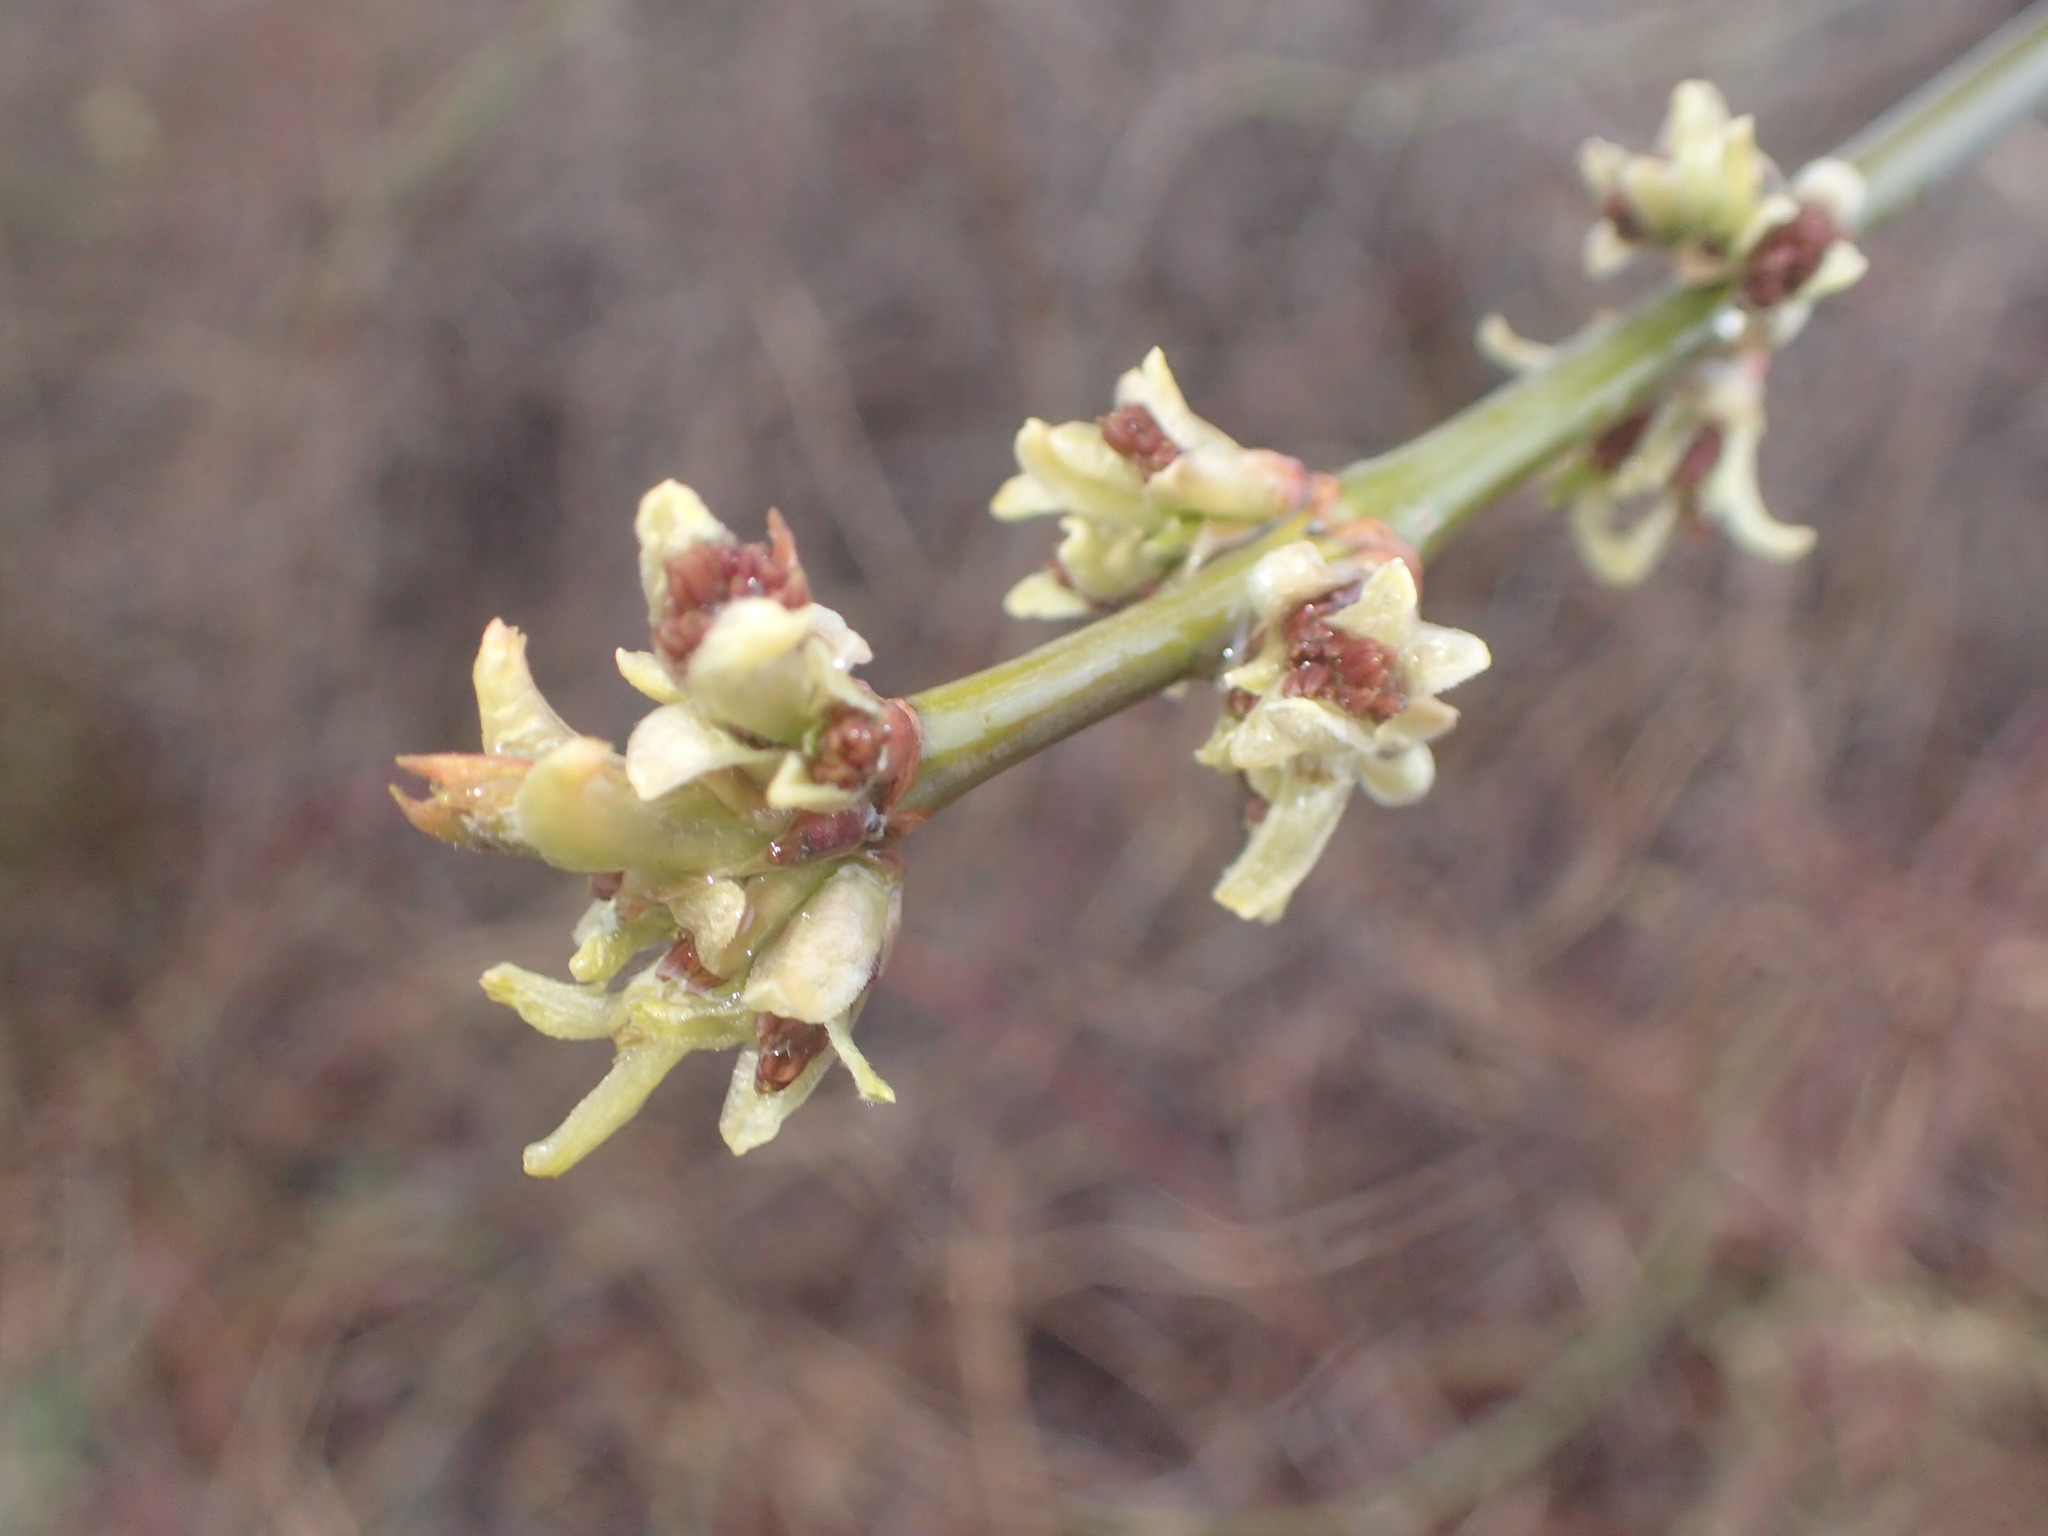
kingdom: Plantae
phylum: Tracheophyta
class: Magnoliopsida
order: Sapindales
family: Sapindaceae
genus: Acer
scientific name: Acer negundo
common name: Ashleaf maple
